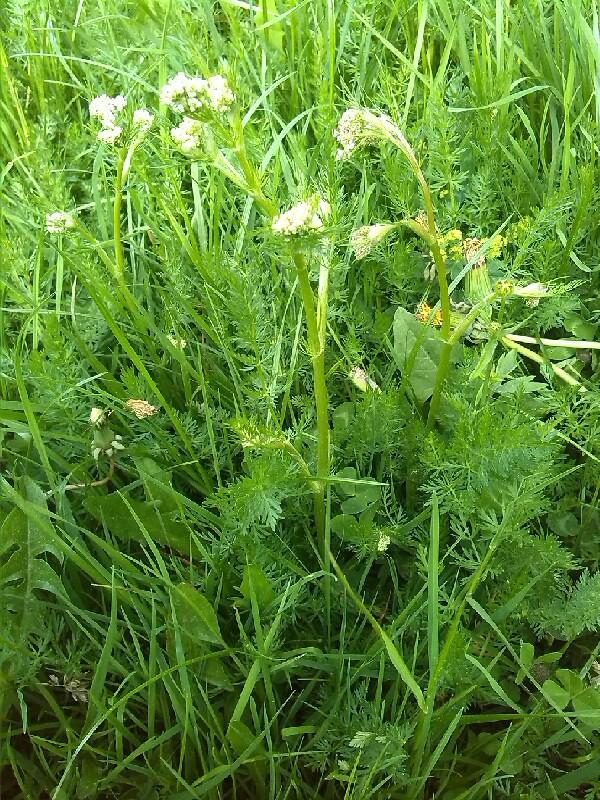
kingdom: Plantae
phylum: Tracheophyta
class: Magnoliopsida
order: Apiales
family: Apiaceae
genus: Meum
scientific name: Meum athamanticum
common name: Spignel
